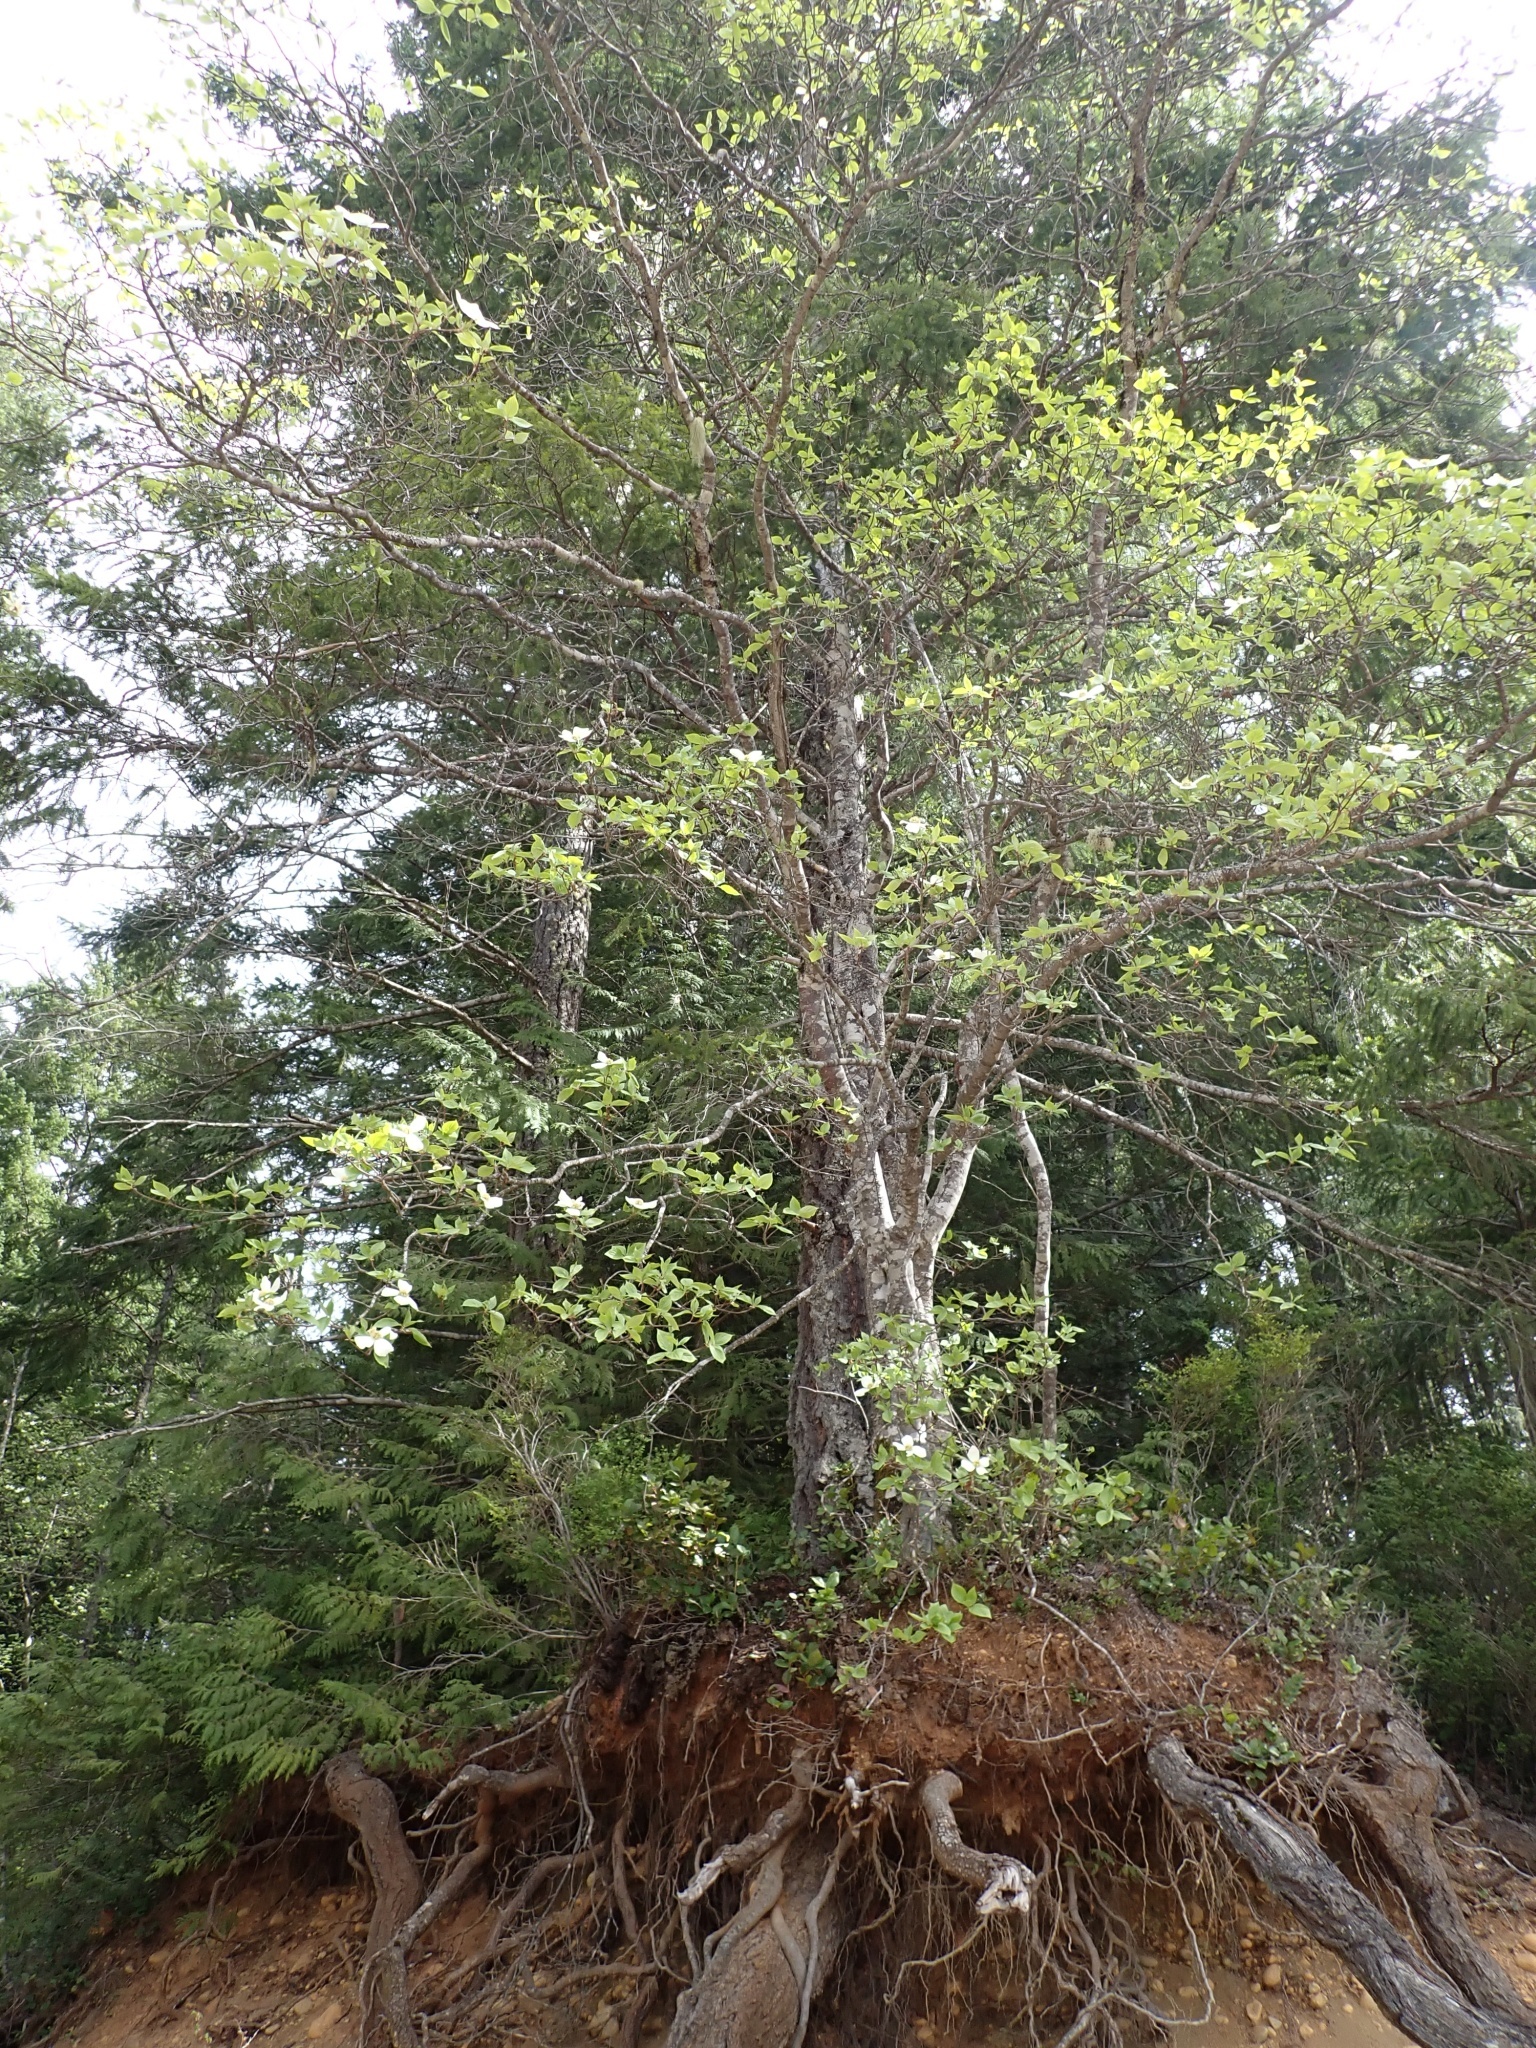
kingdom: Plantae
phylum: Tracheophyta
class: Magnoliopsida
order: Cornales
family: Cornaceae
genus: Cornus
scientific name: Cornus nuttallii
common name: Pacific dogwood
